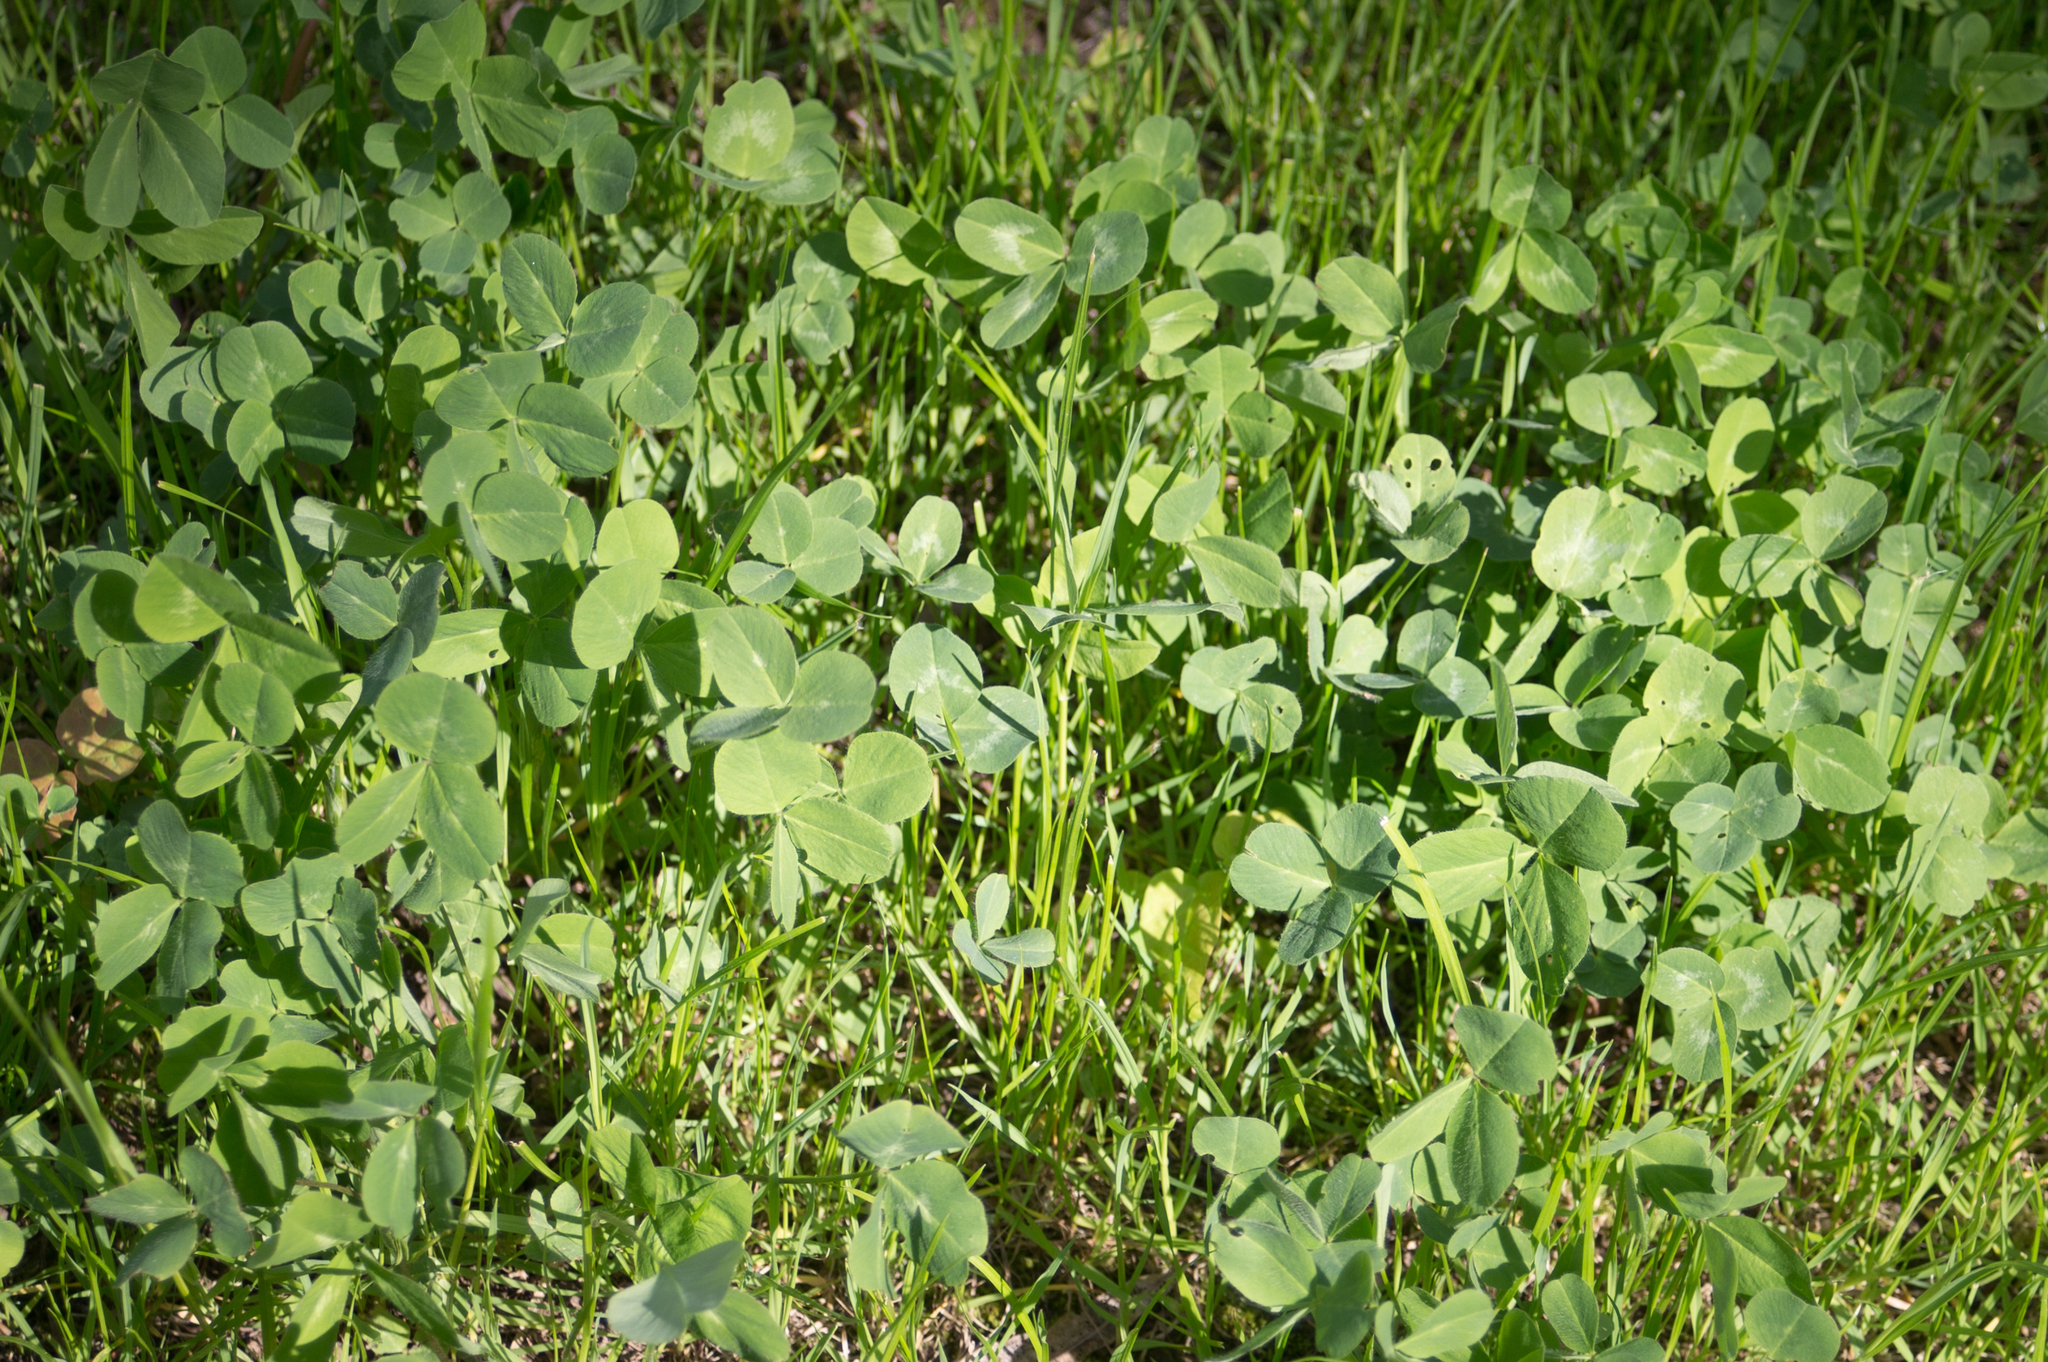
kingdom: Plantae
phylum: Tracheophyta
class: Magnoliopsida
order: Fabales
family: Fabaceae
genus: Trifolium
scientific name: Trifolium repens
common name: White clover
